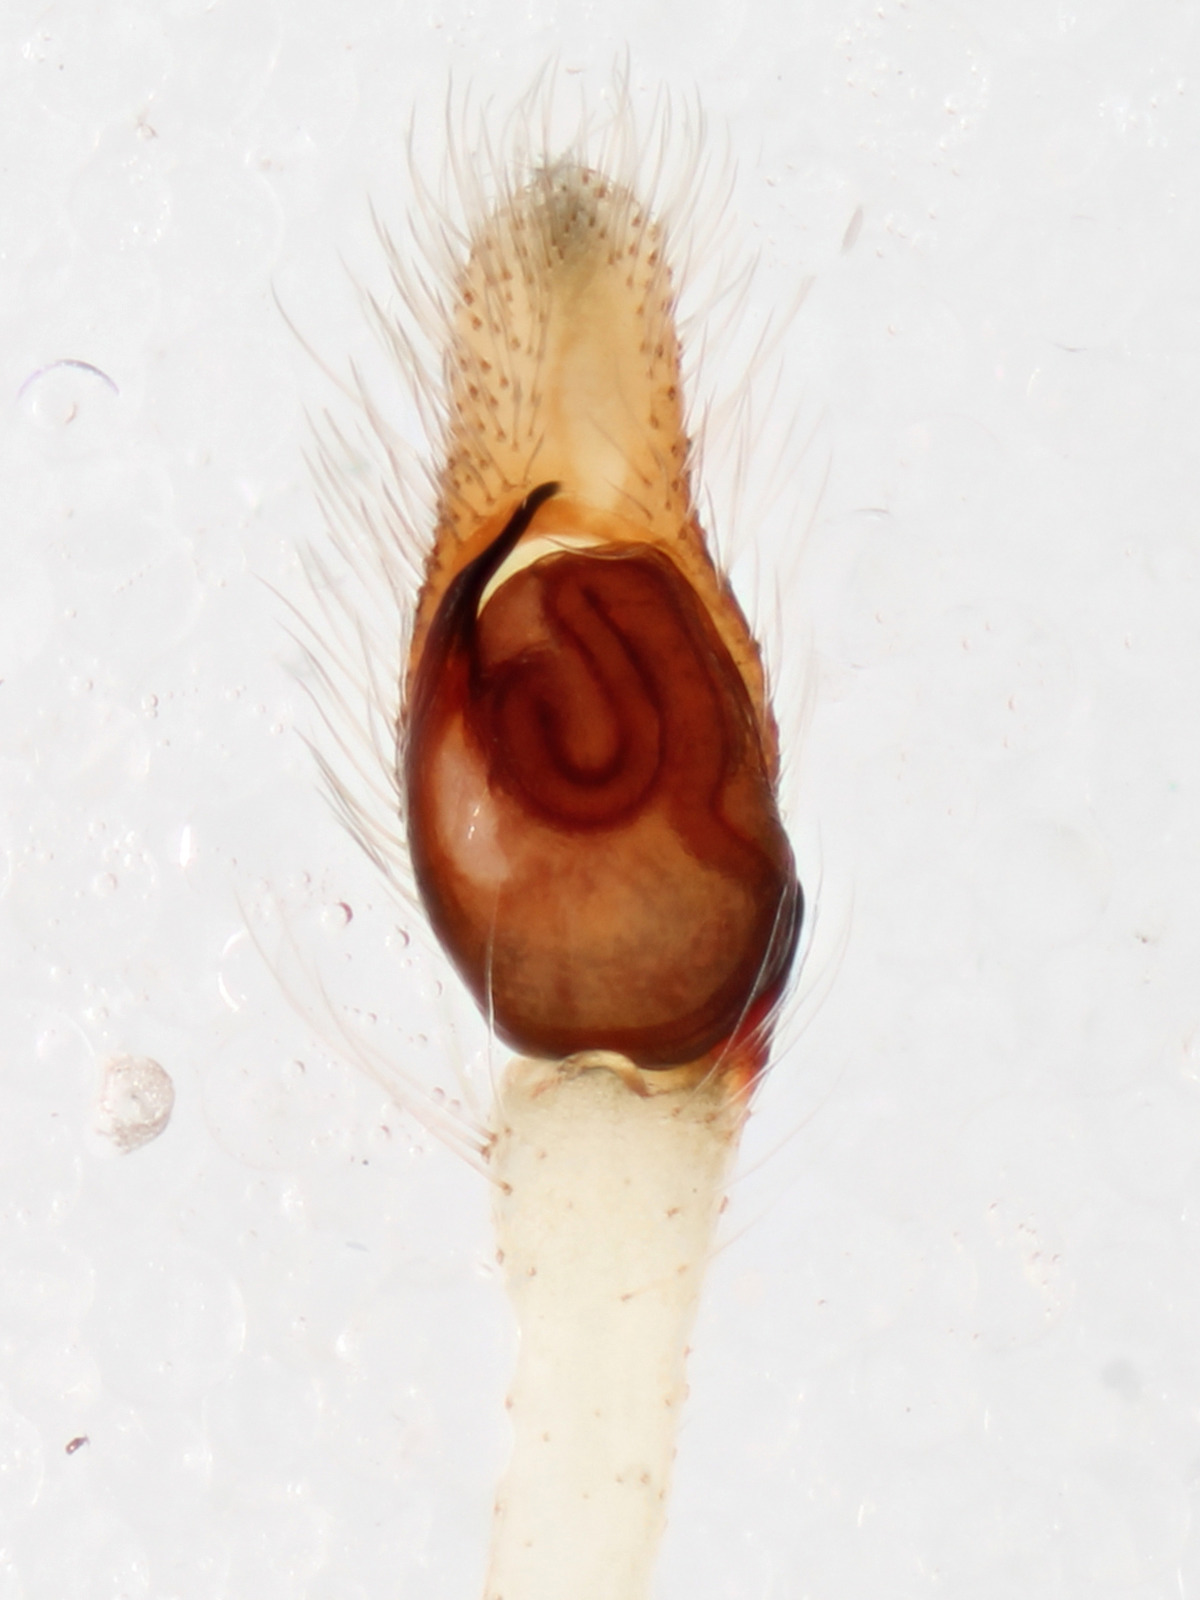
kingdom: Animalia
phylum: Arthropoda
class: Arachnida
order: Araneae
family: Salticidae
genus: Acragas
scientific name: Acragas longipalpus
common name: Jumping spiders
